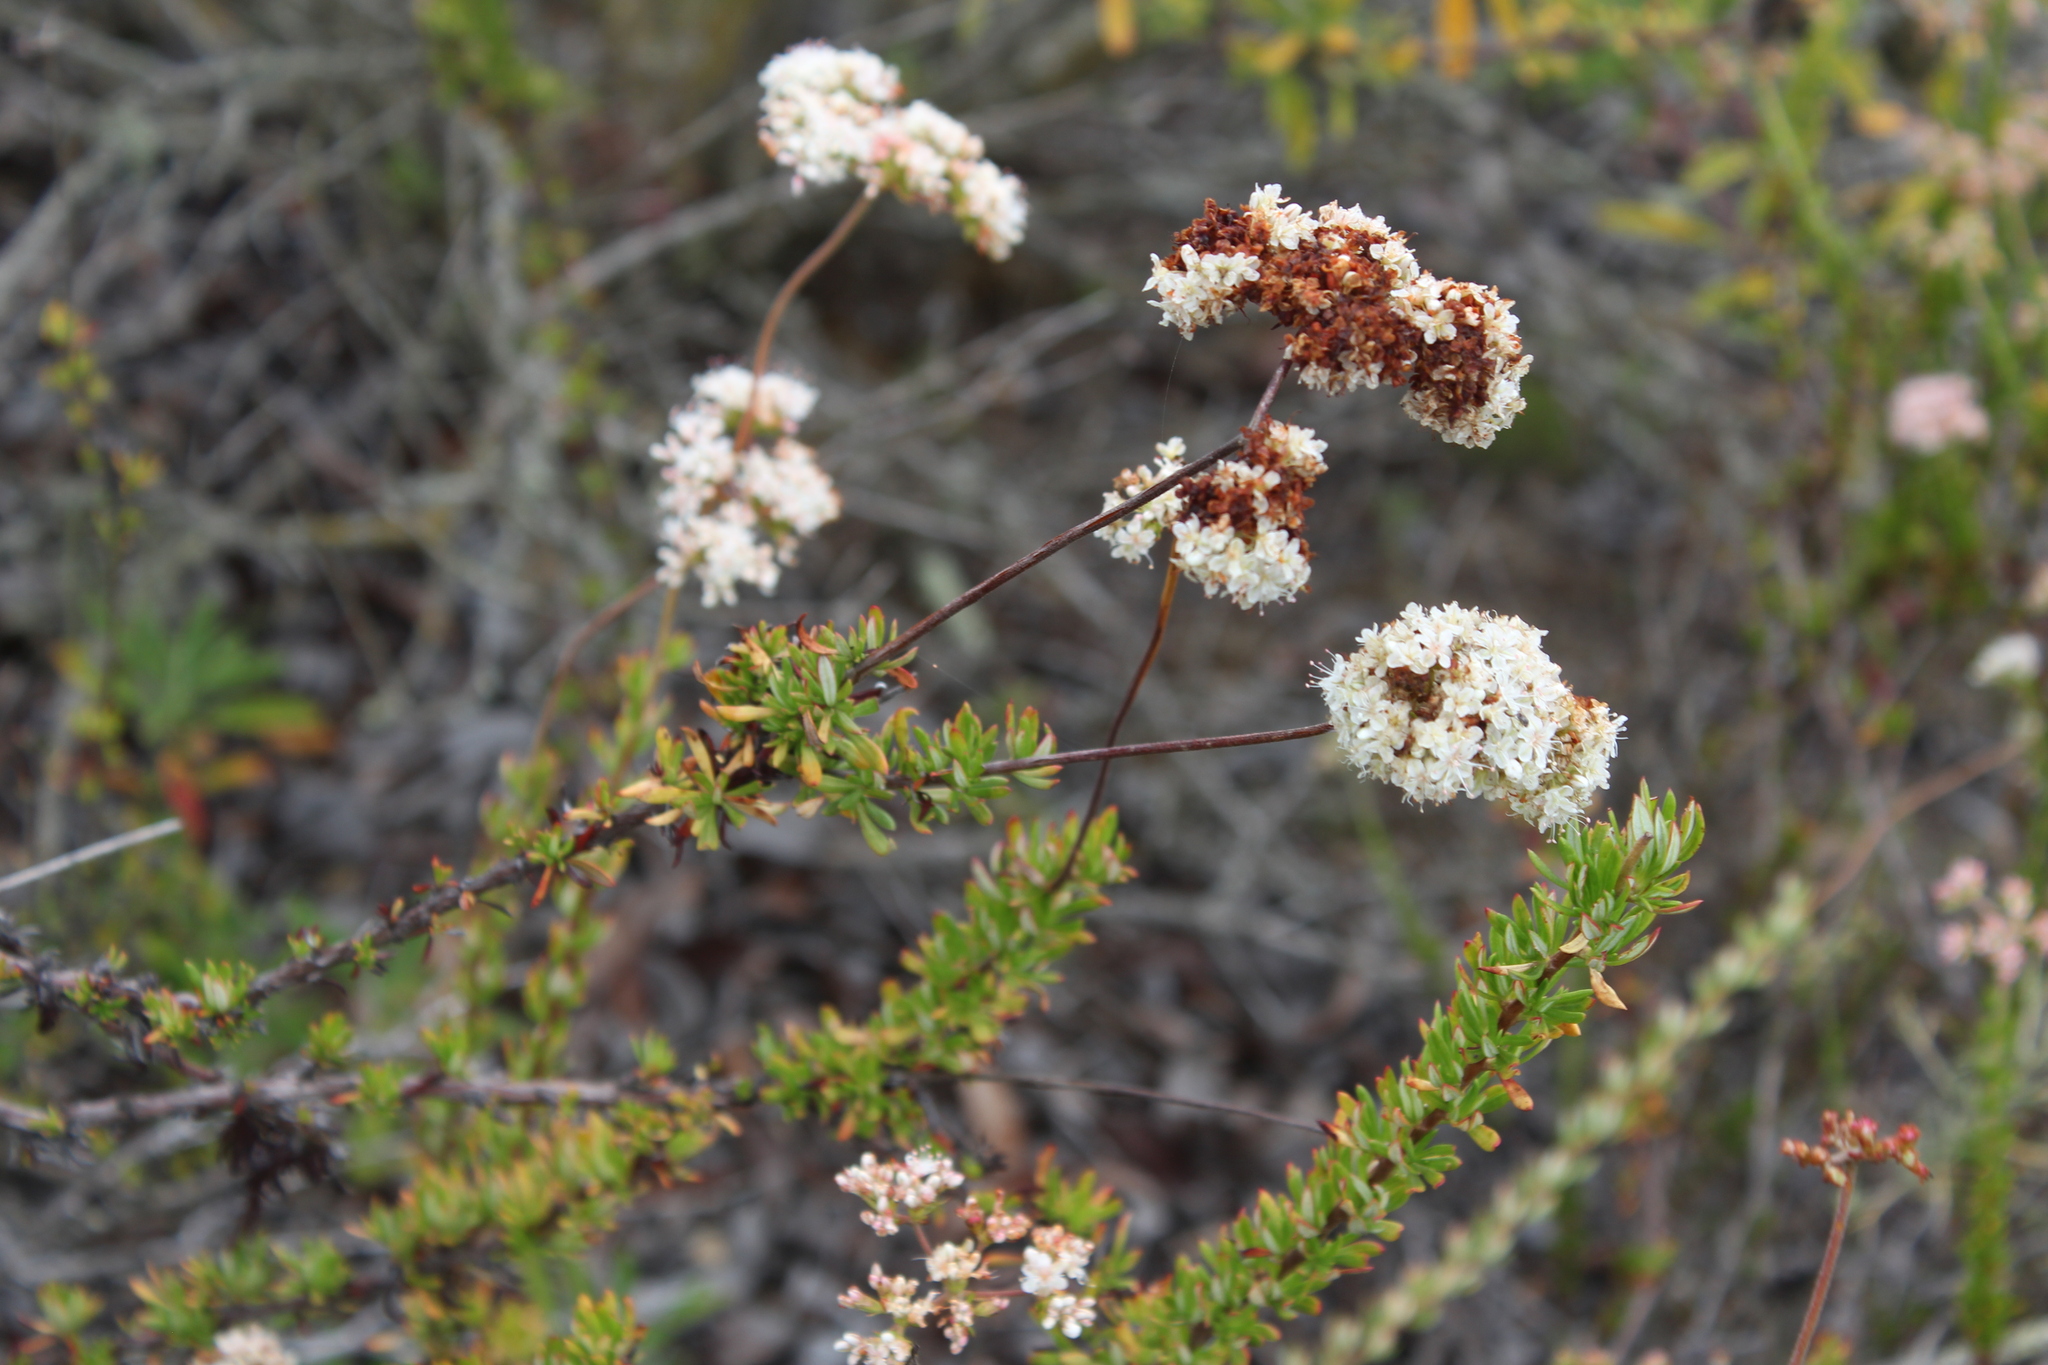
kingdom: Plantae
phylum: Tracheophyta
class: Magnoliopsida
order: Caryophyllales
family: Polygonaceae
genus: Eriogonum
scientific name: Eriogonum fasciculatum
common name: California wild buckwheat
